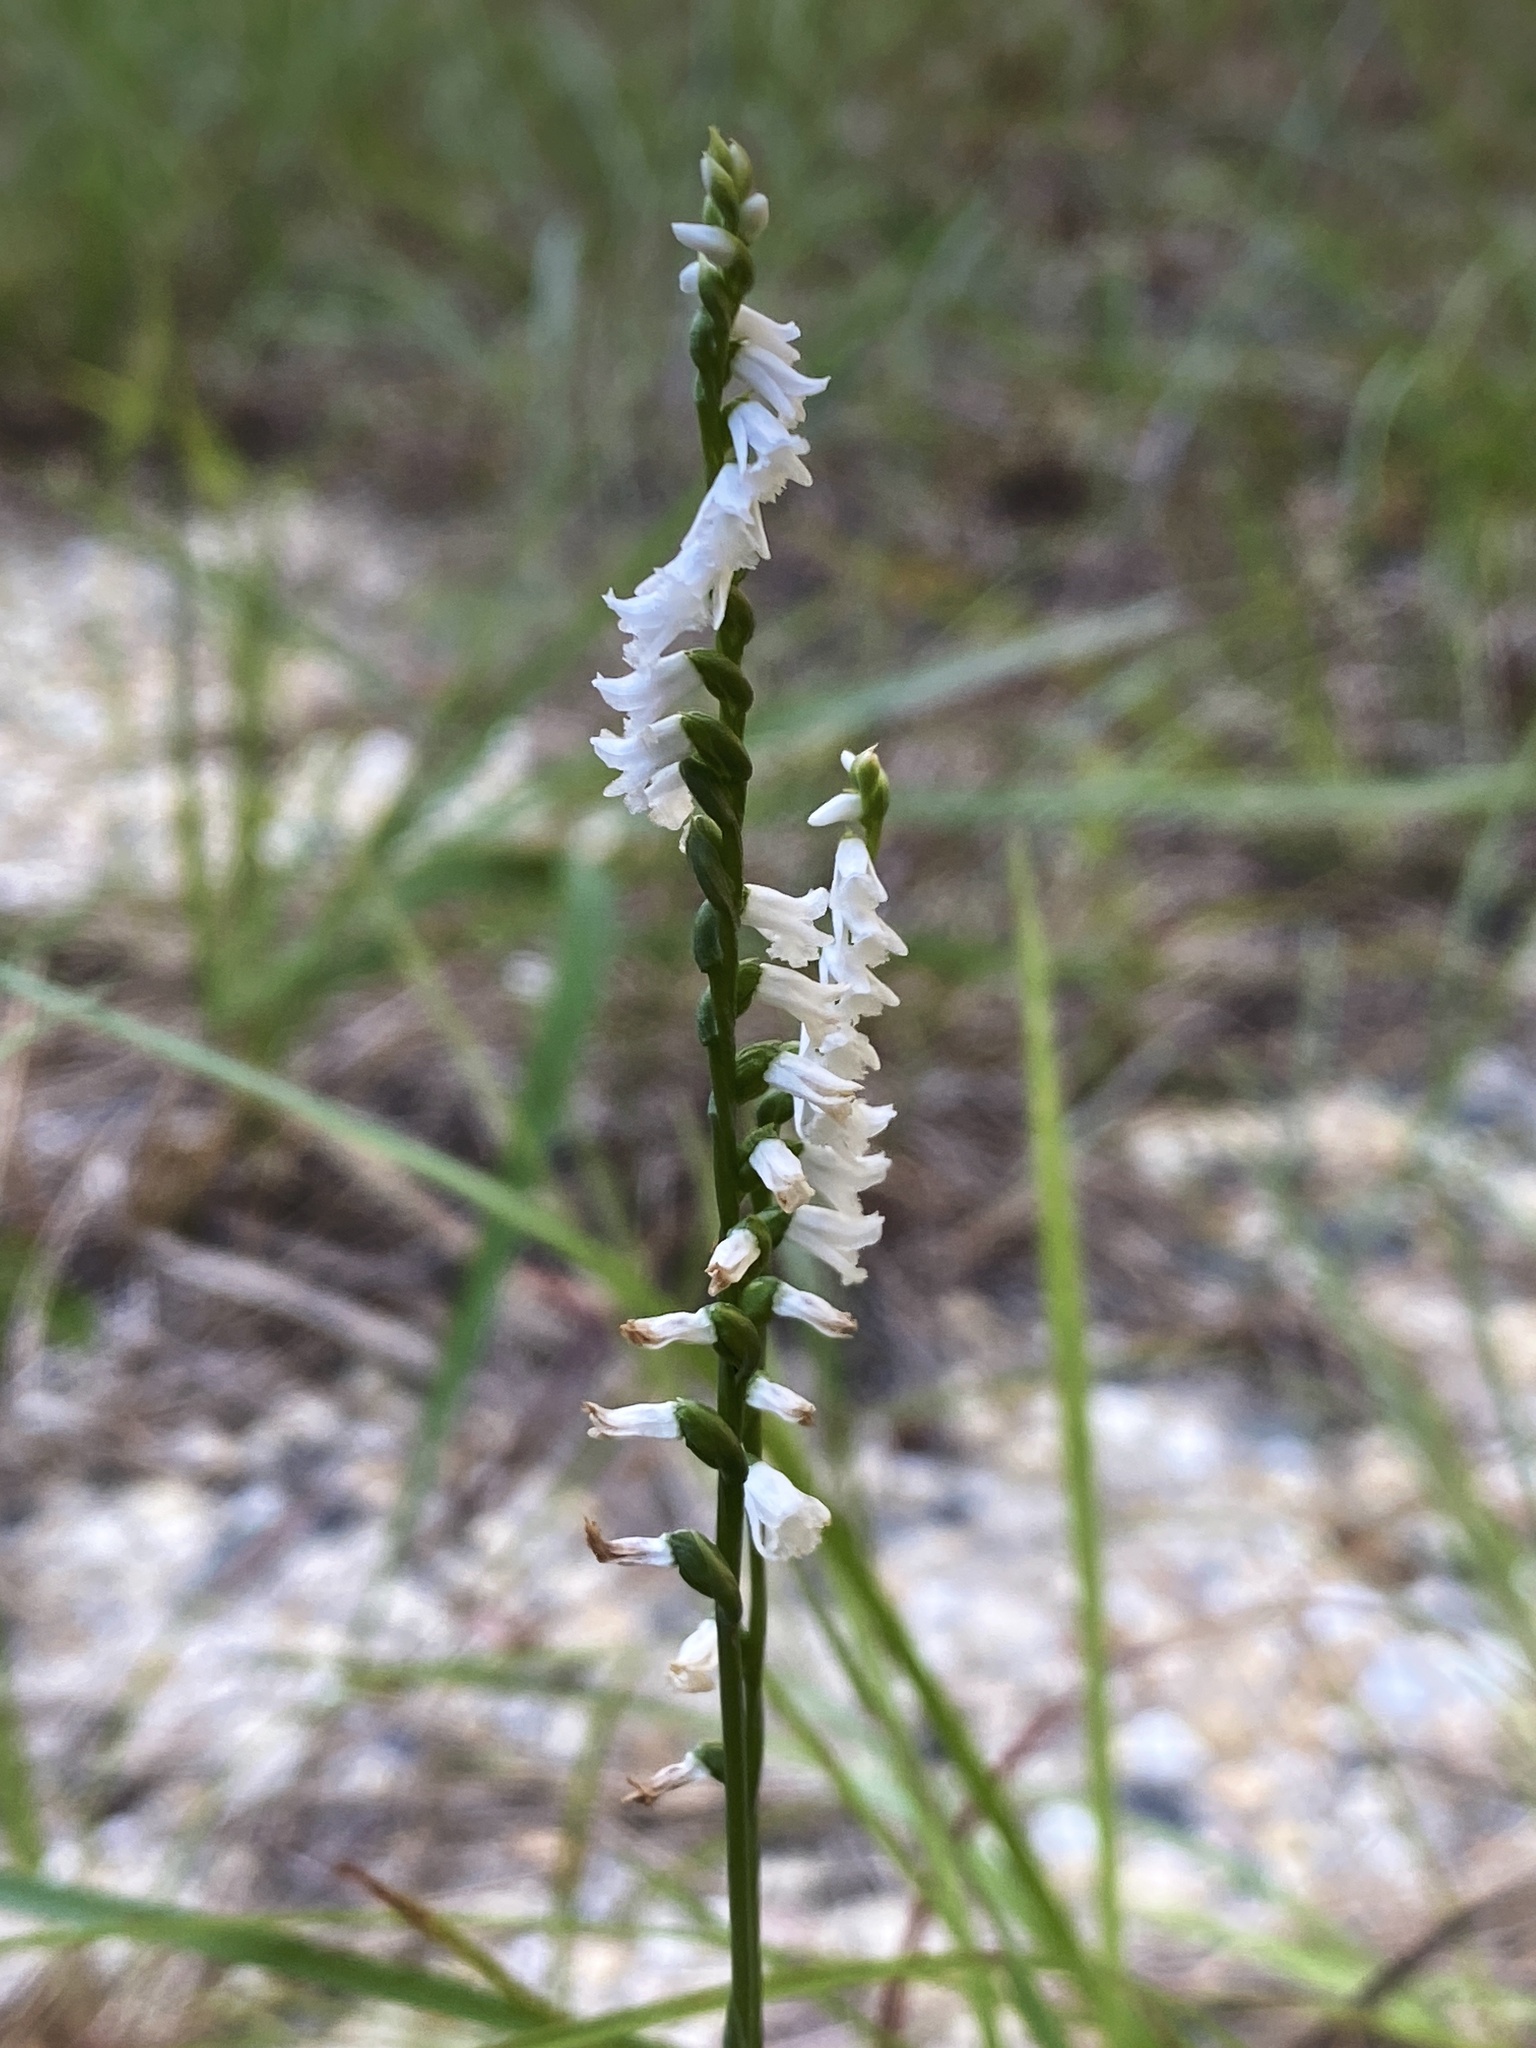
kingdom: Plantae
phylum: Tracheophyta
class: Liliopsida
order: Asparagales
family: Orchidaceae
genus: Spiranthes
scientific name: Spiranthes tuberosa
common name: Little ladies'-tresses
